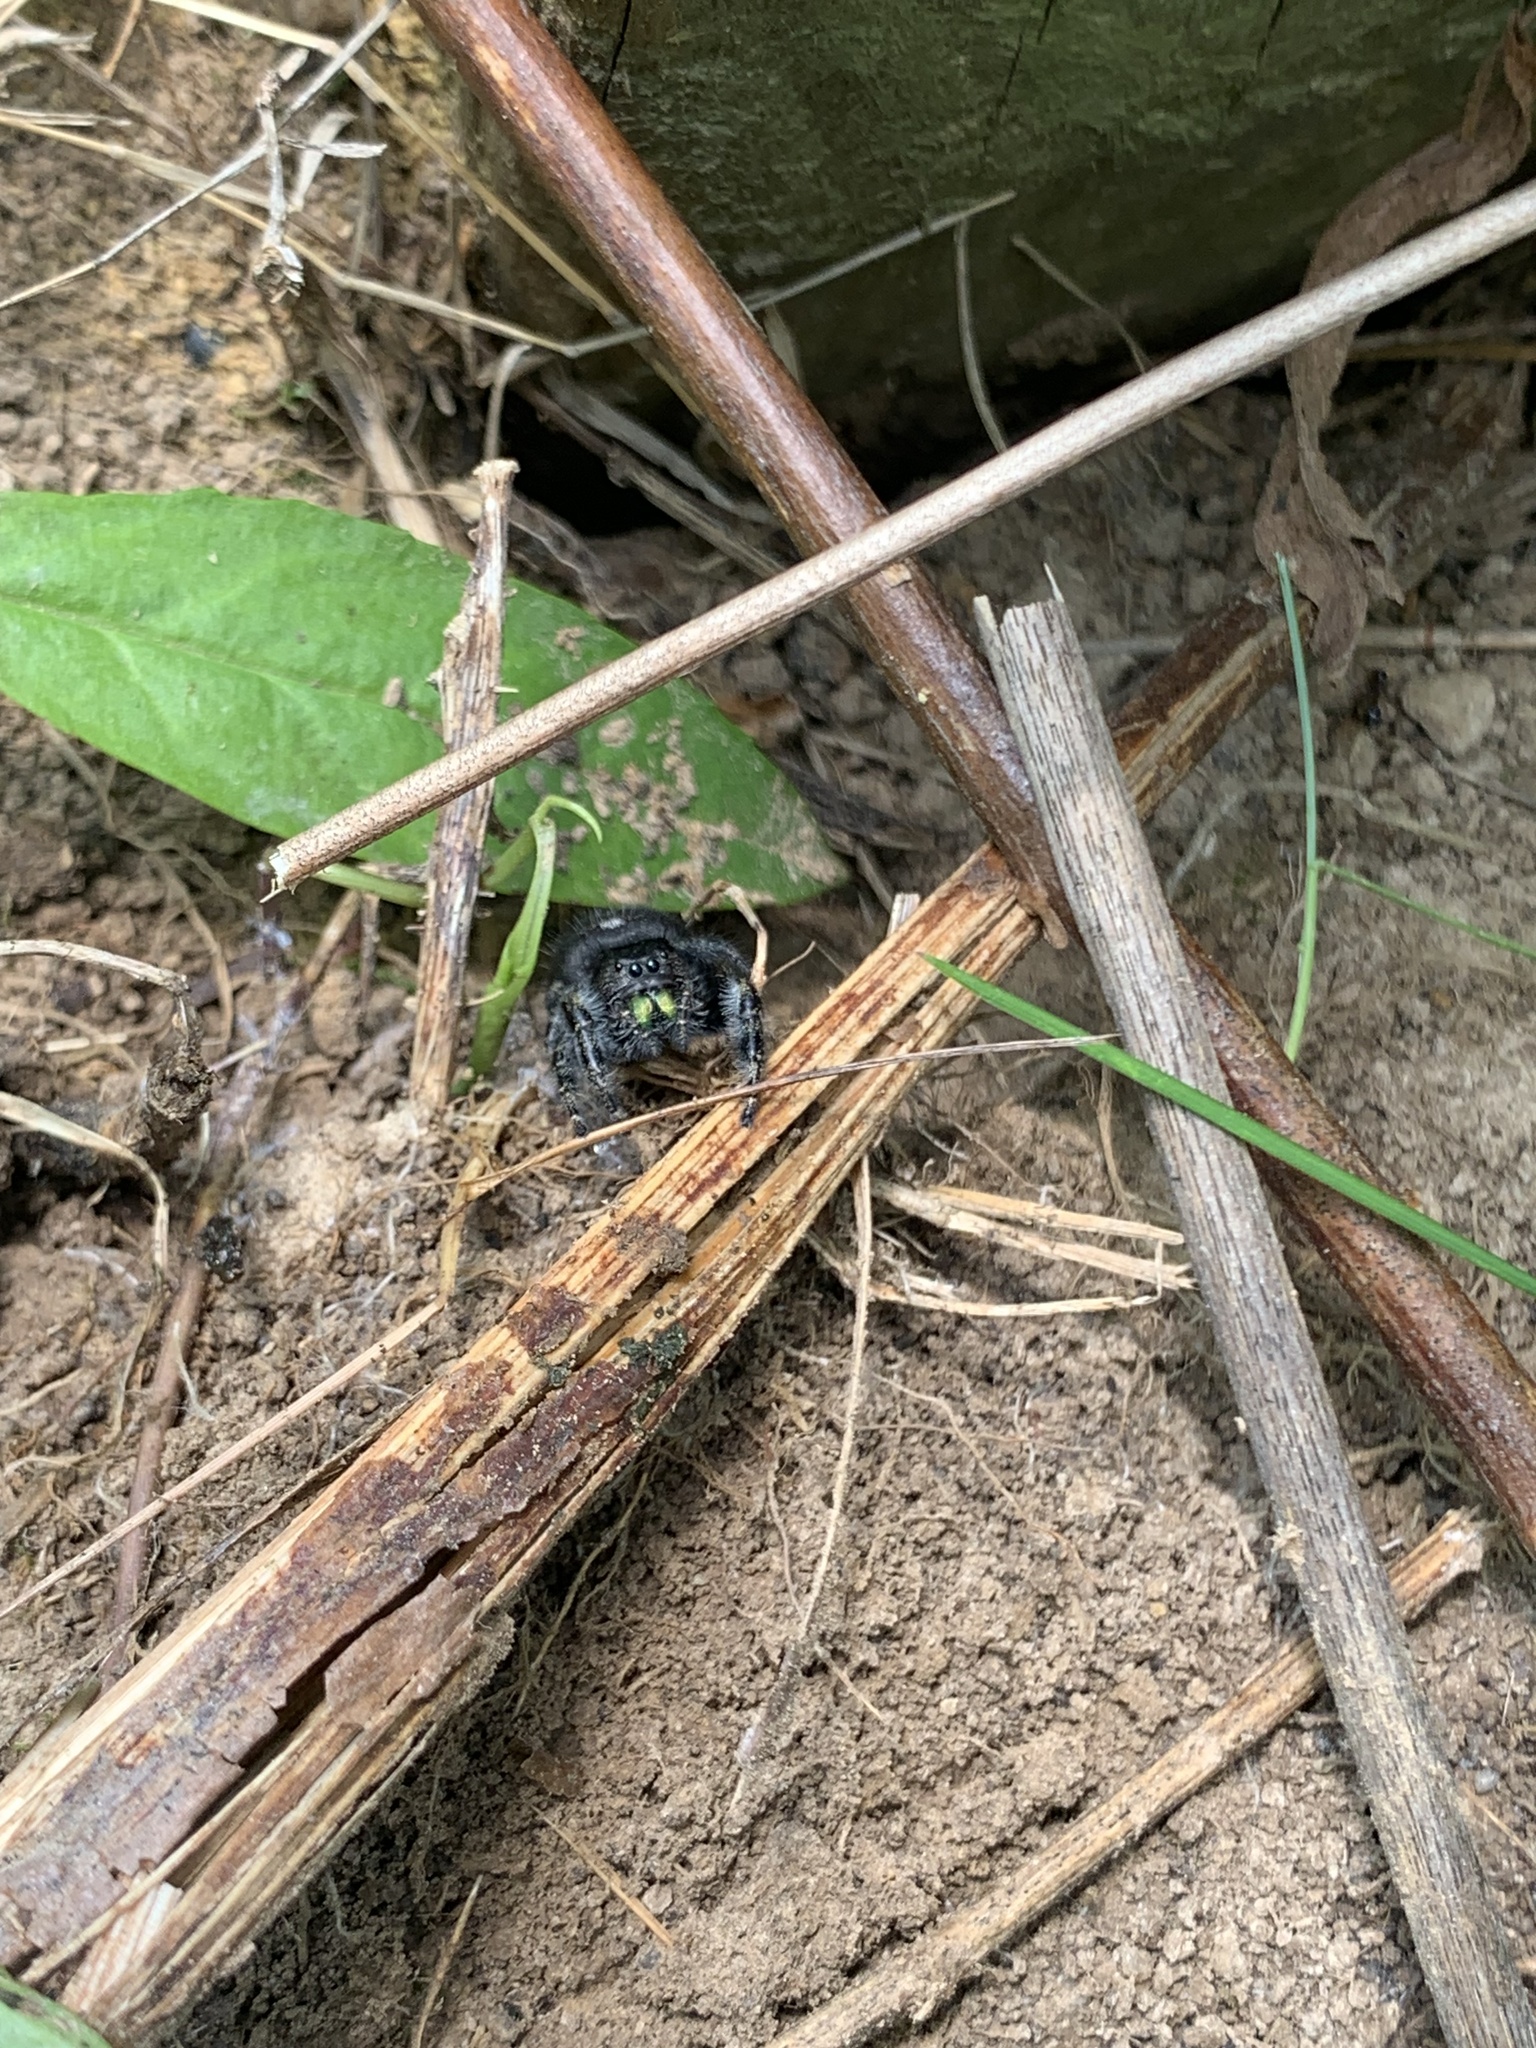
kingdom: Animalia
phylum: Arthropoda
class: Arachnida
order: Araneae
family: Salticidae
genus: Phidippus
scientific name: Phidippus audax
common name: Bold jumper
